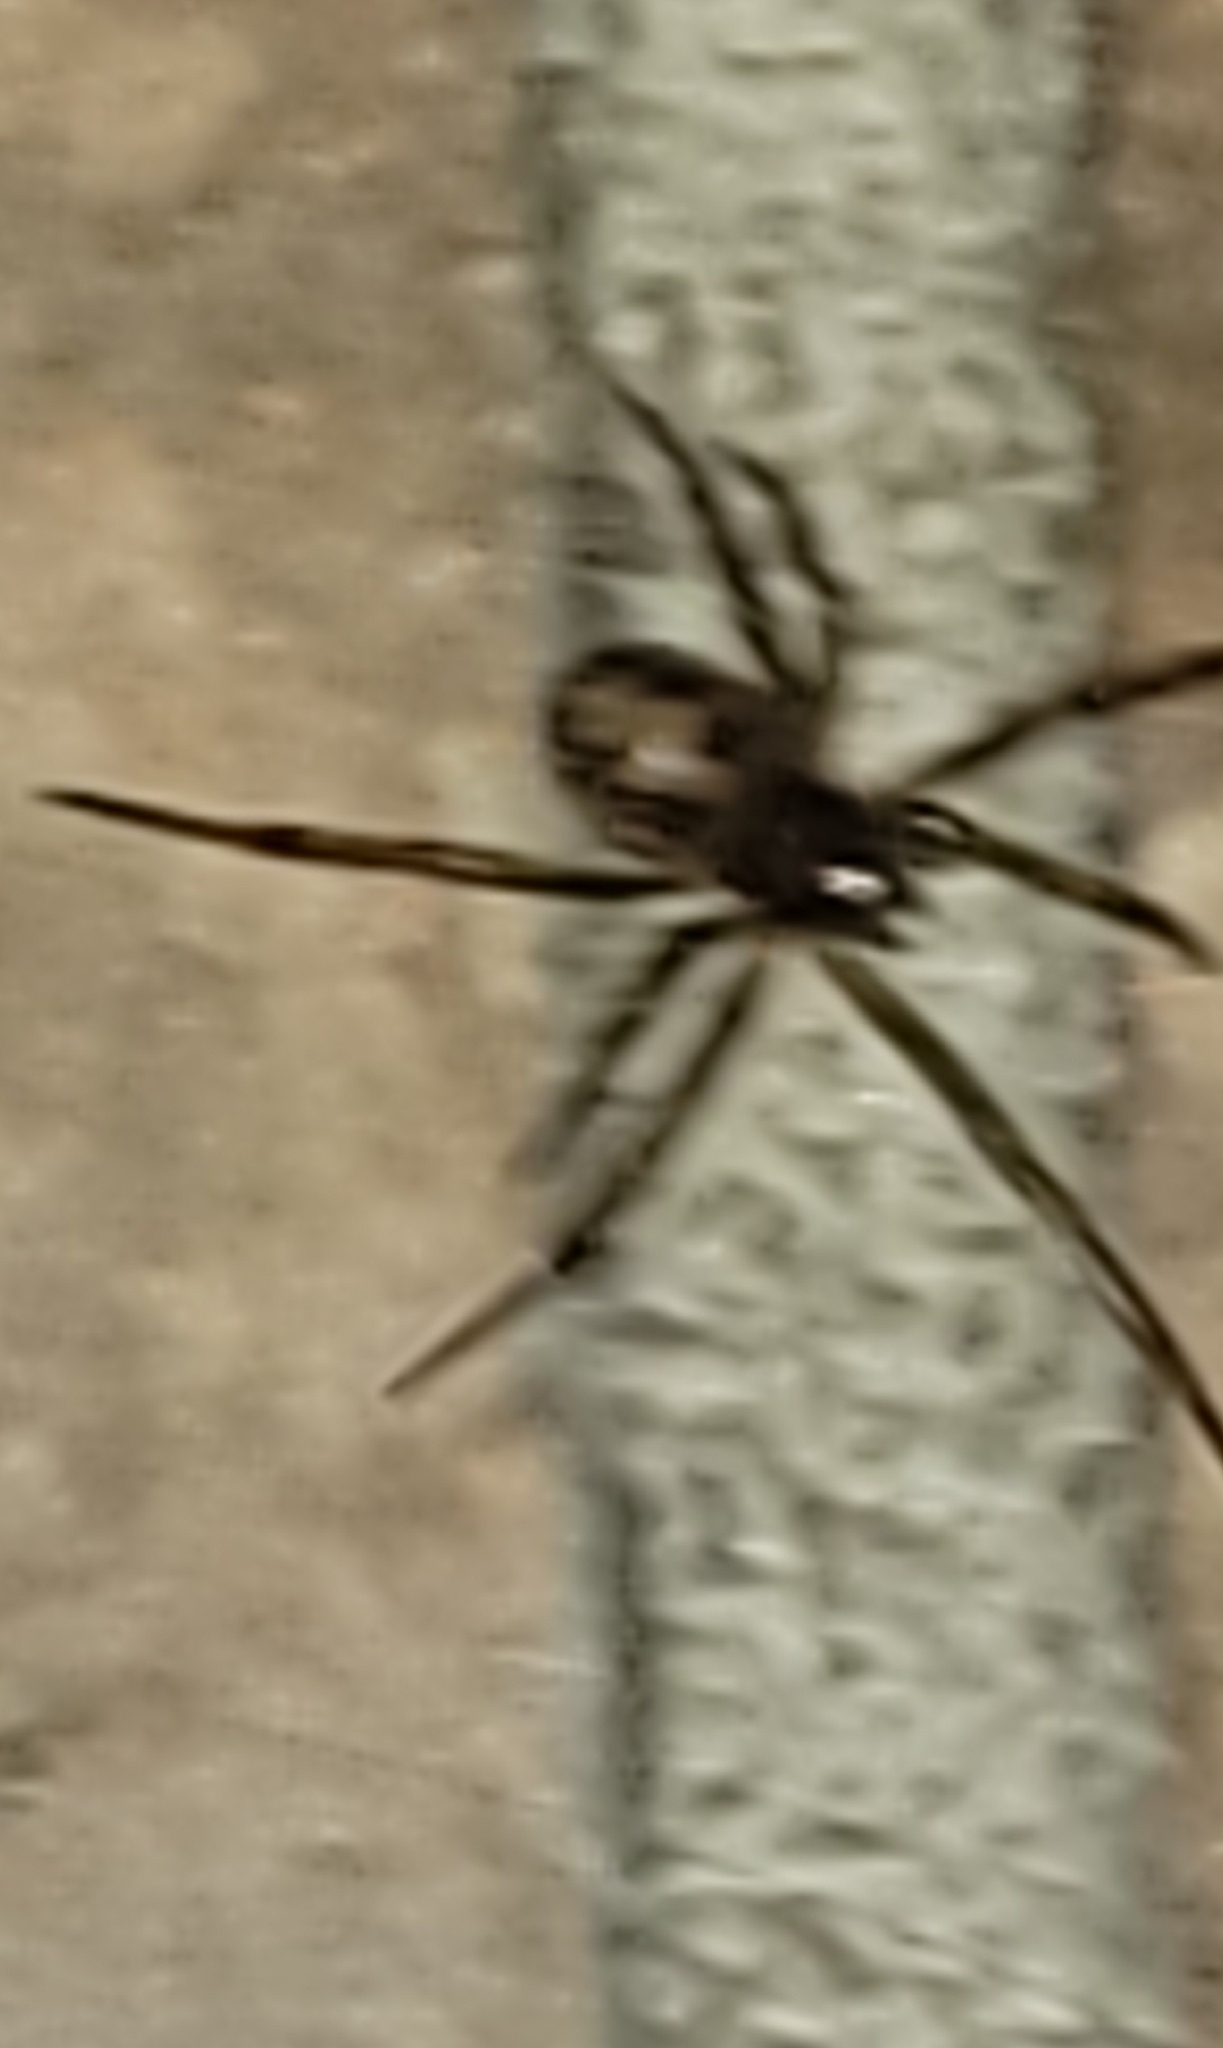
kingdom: Animalia
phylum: Arthropoda
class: Arachnida
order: Araneae
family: Theridiidae
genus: Steatoda
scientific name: Steatoda triangulosa
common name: Triangulate bud spider
